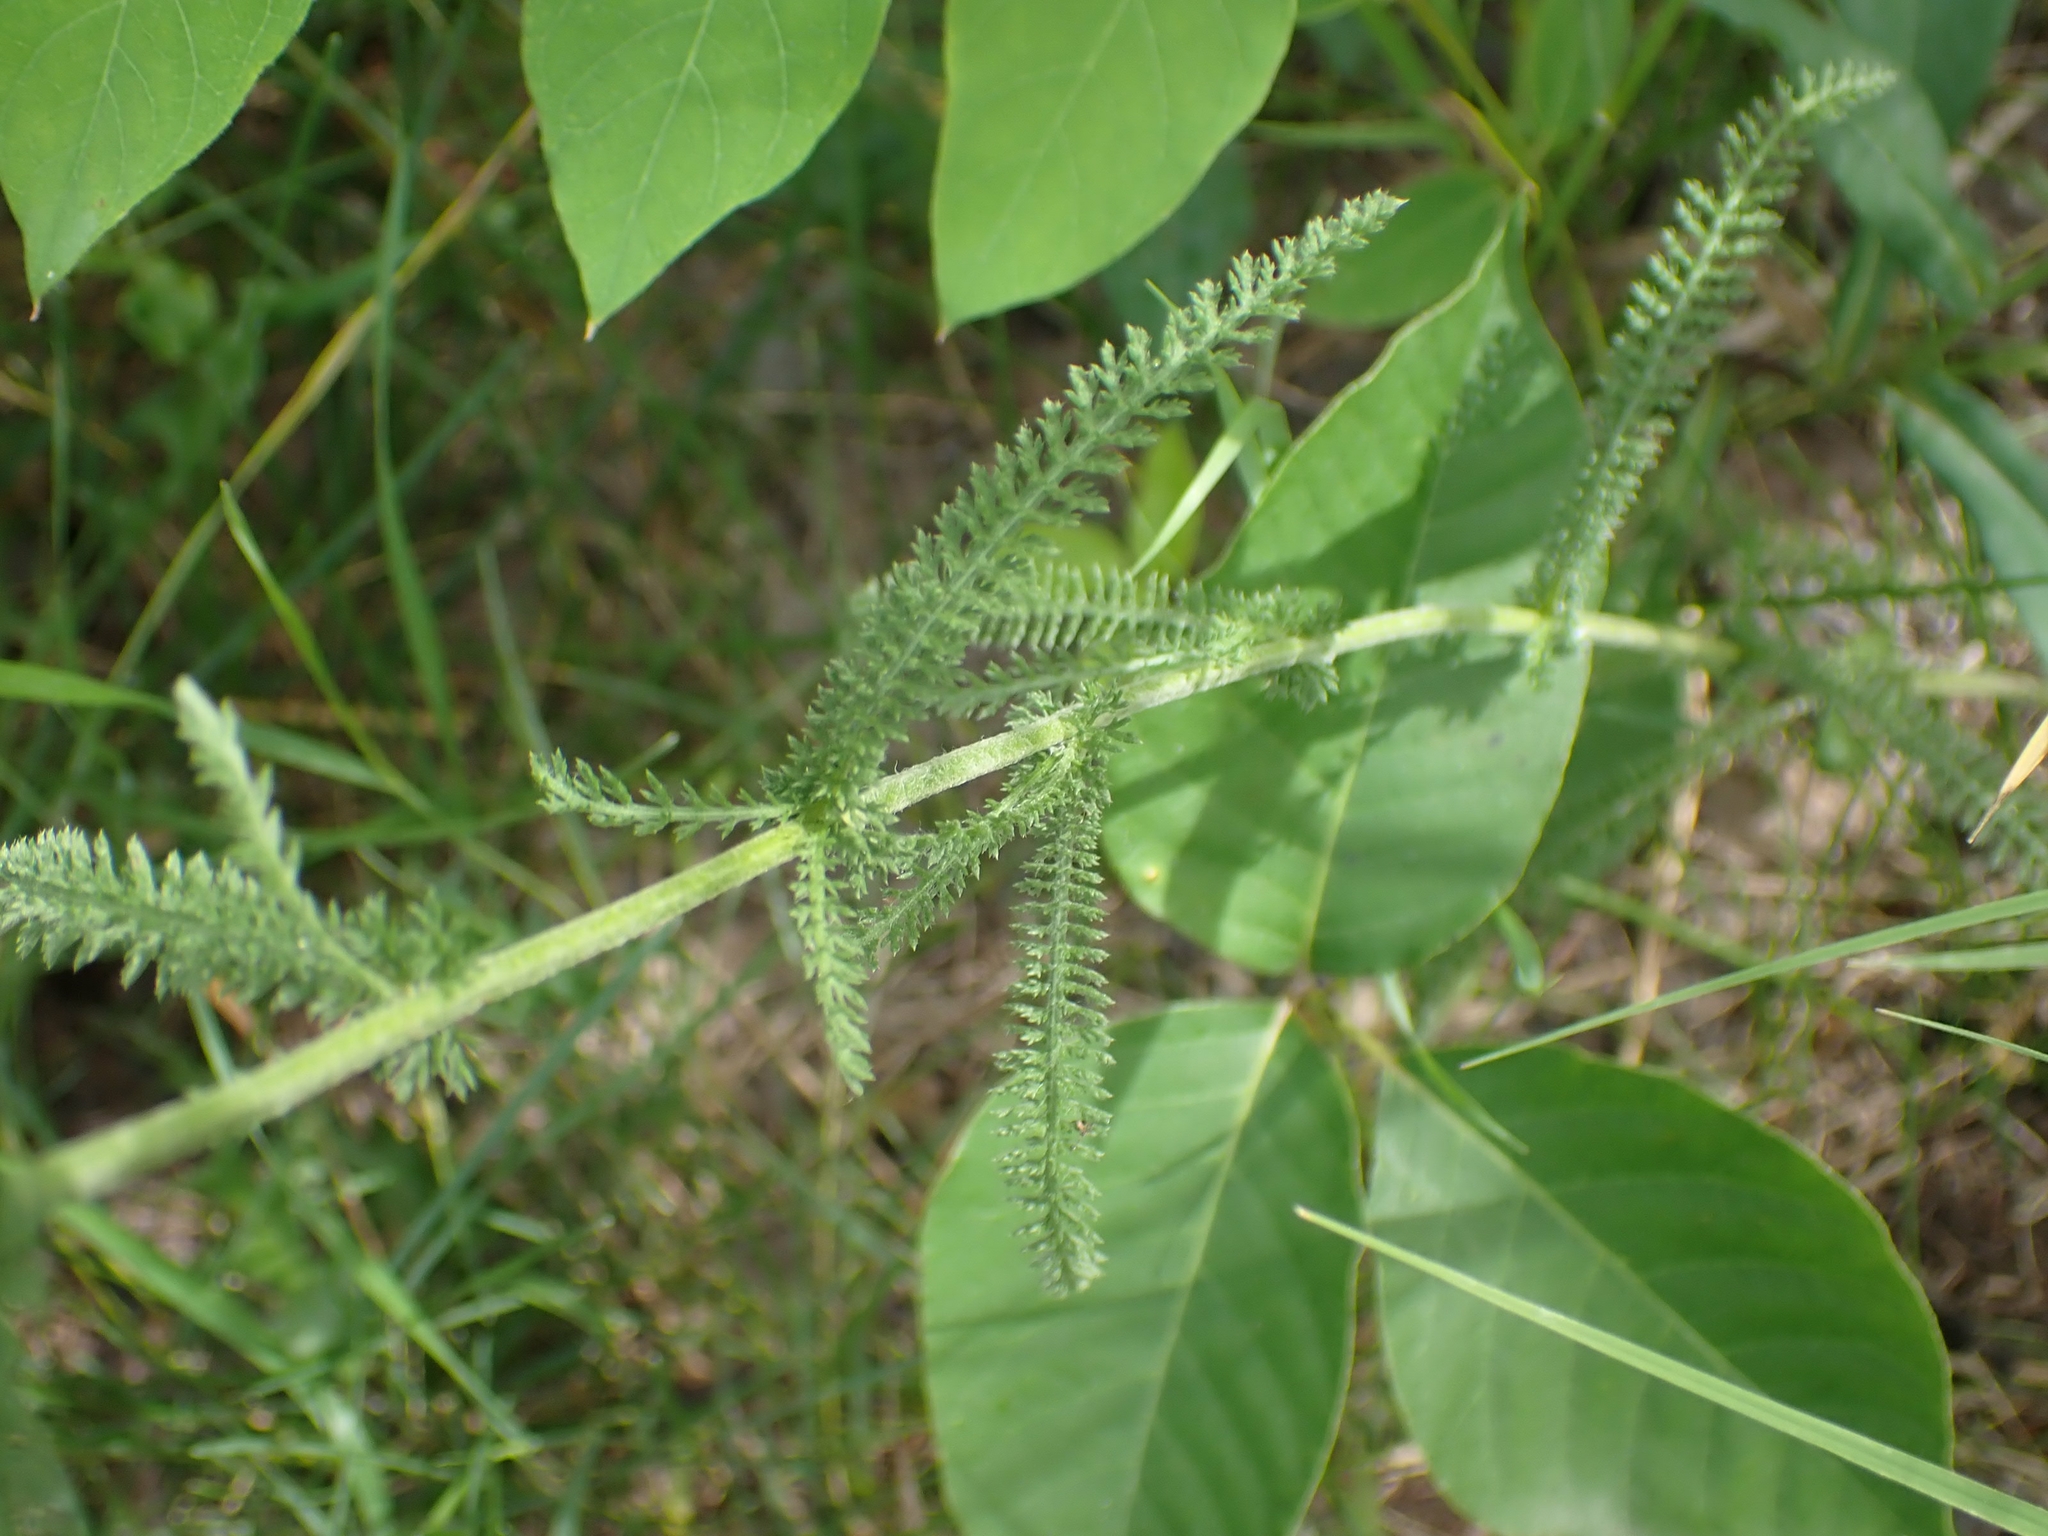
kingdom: Plantae
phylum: Tracheophyta
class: Magnoliopsida
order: Asterales
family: Asteraceae
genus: Achillea
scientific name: Achillea millefolium
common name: Yarrow
